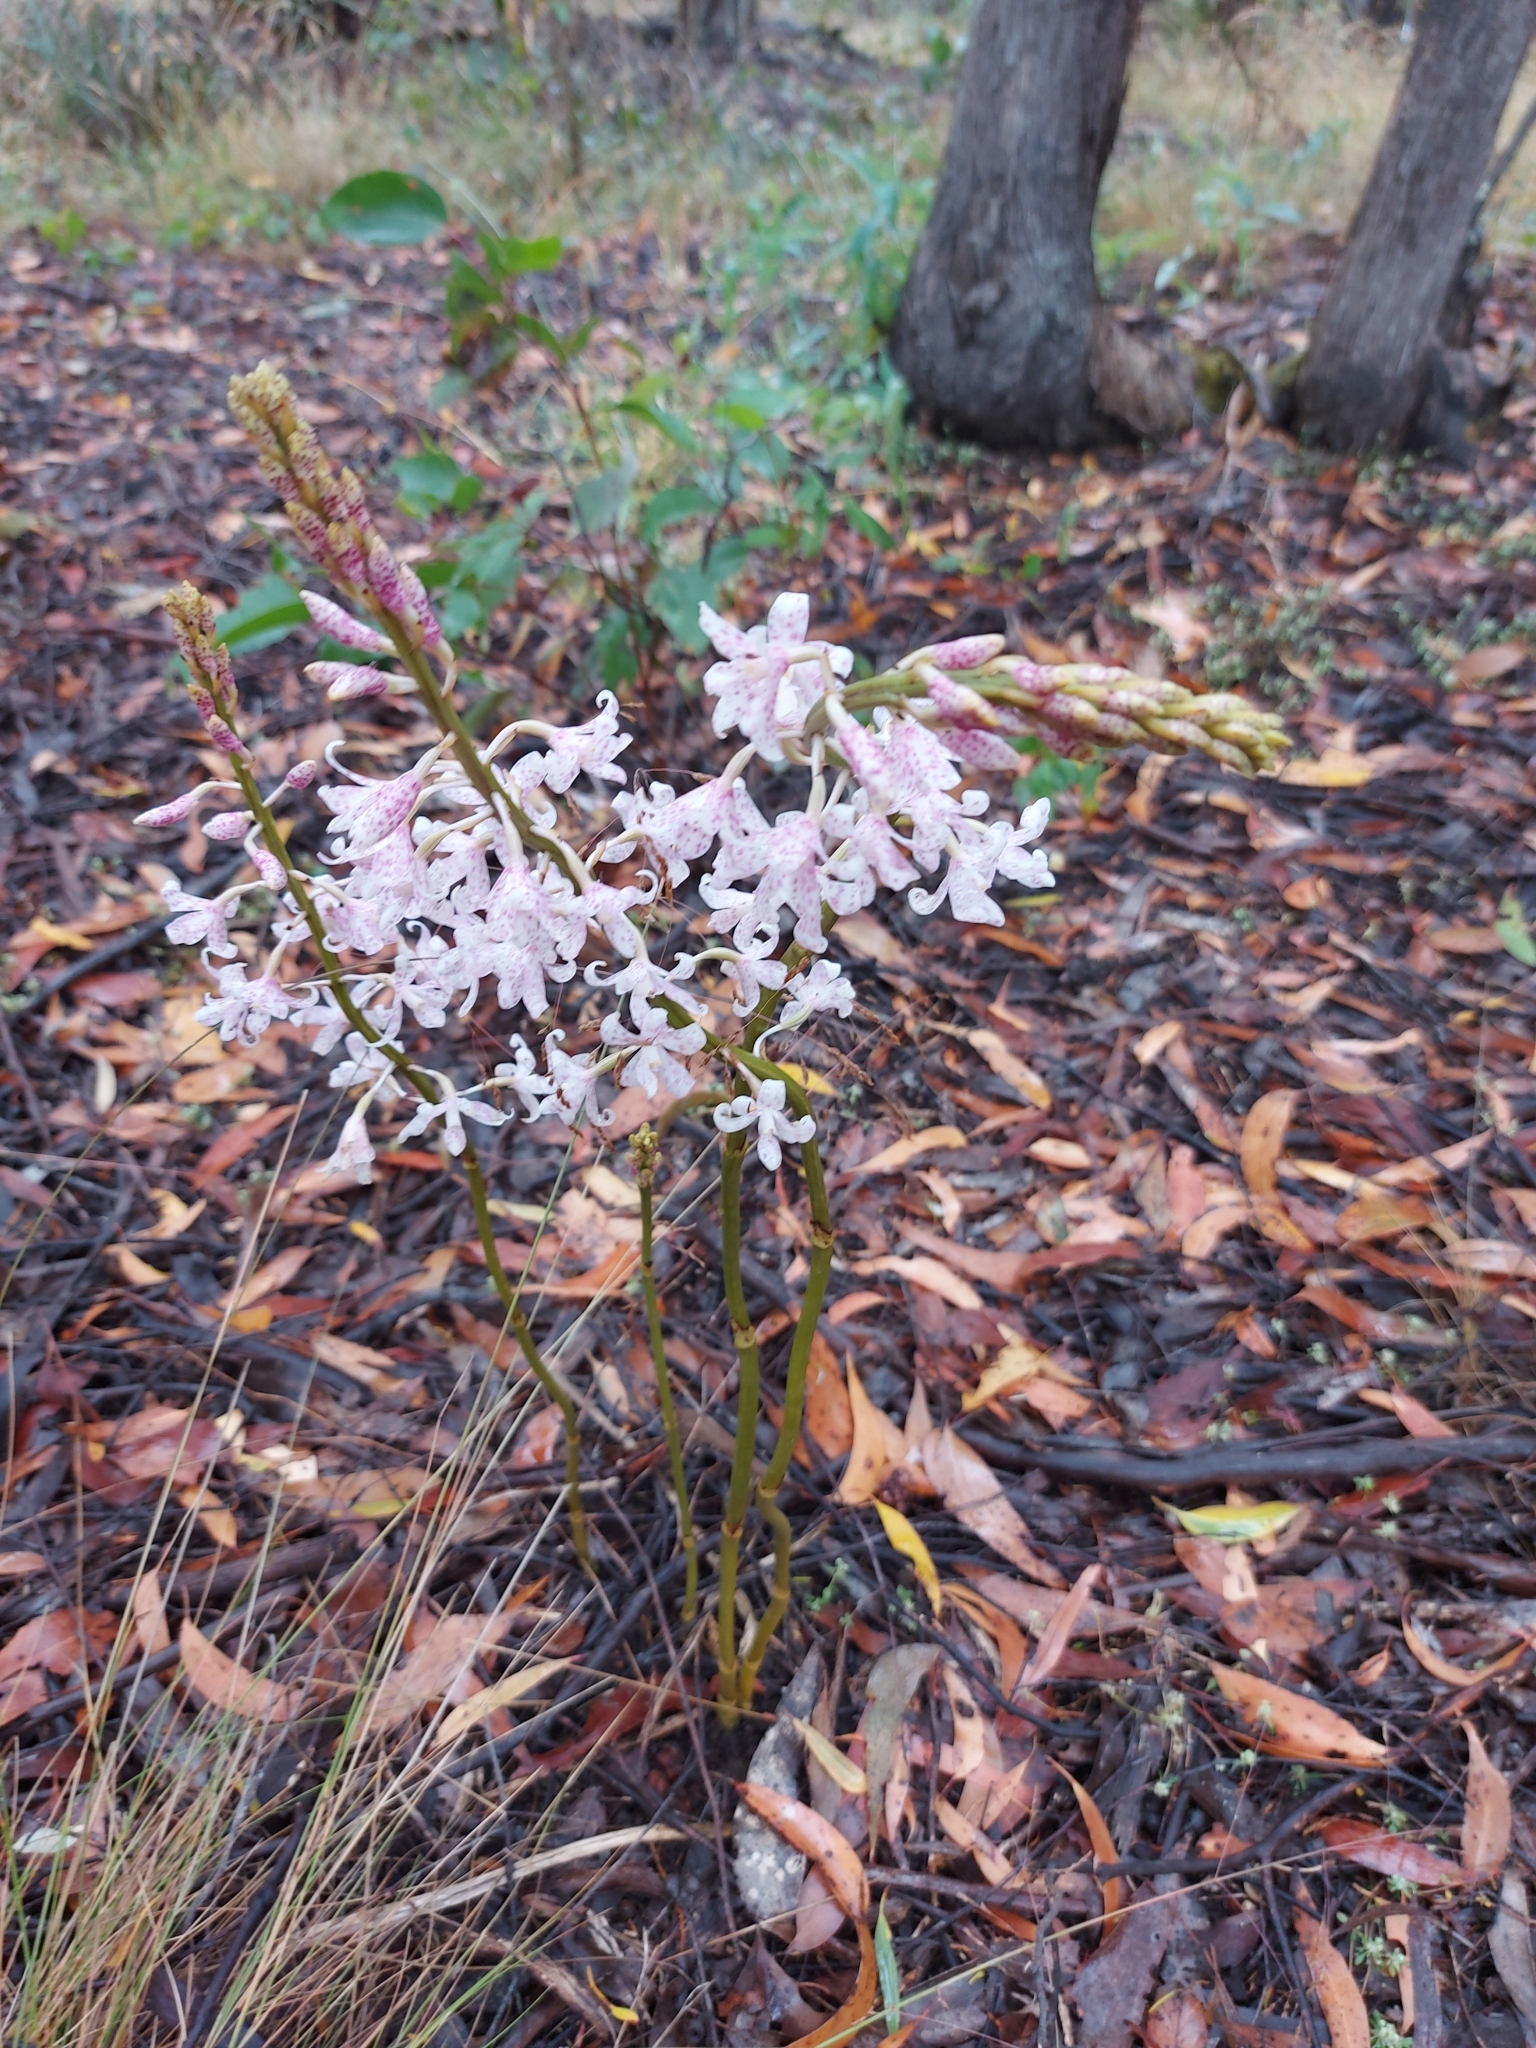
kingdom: Plantae
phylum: Tracheophyta
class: Liliopsida
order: Asparagales
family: Orchidaceae
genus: Dipodium
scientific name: Dipodium pardalinum
